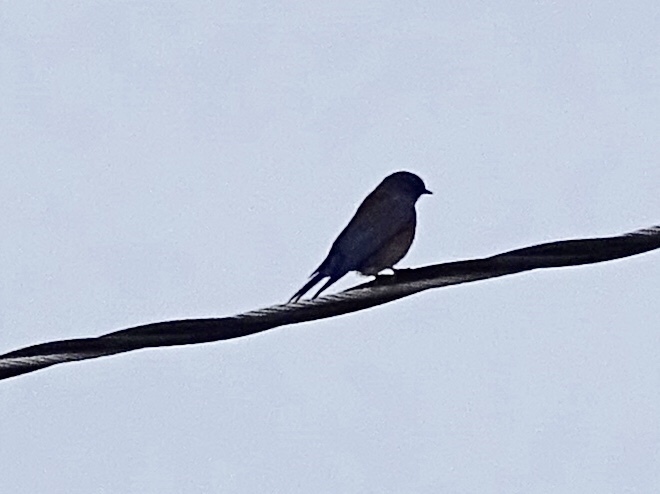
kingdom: Animalia
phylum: Chordata
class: Aves
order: Passeriformes
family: Turdidae
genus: Sialia
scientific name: Sialia mexicana
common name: Western bluebird
